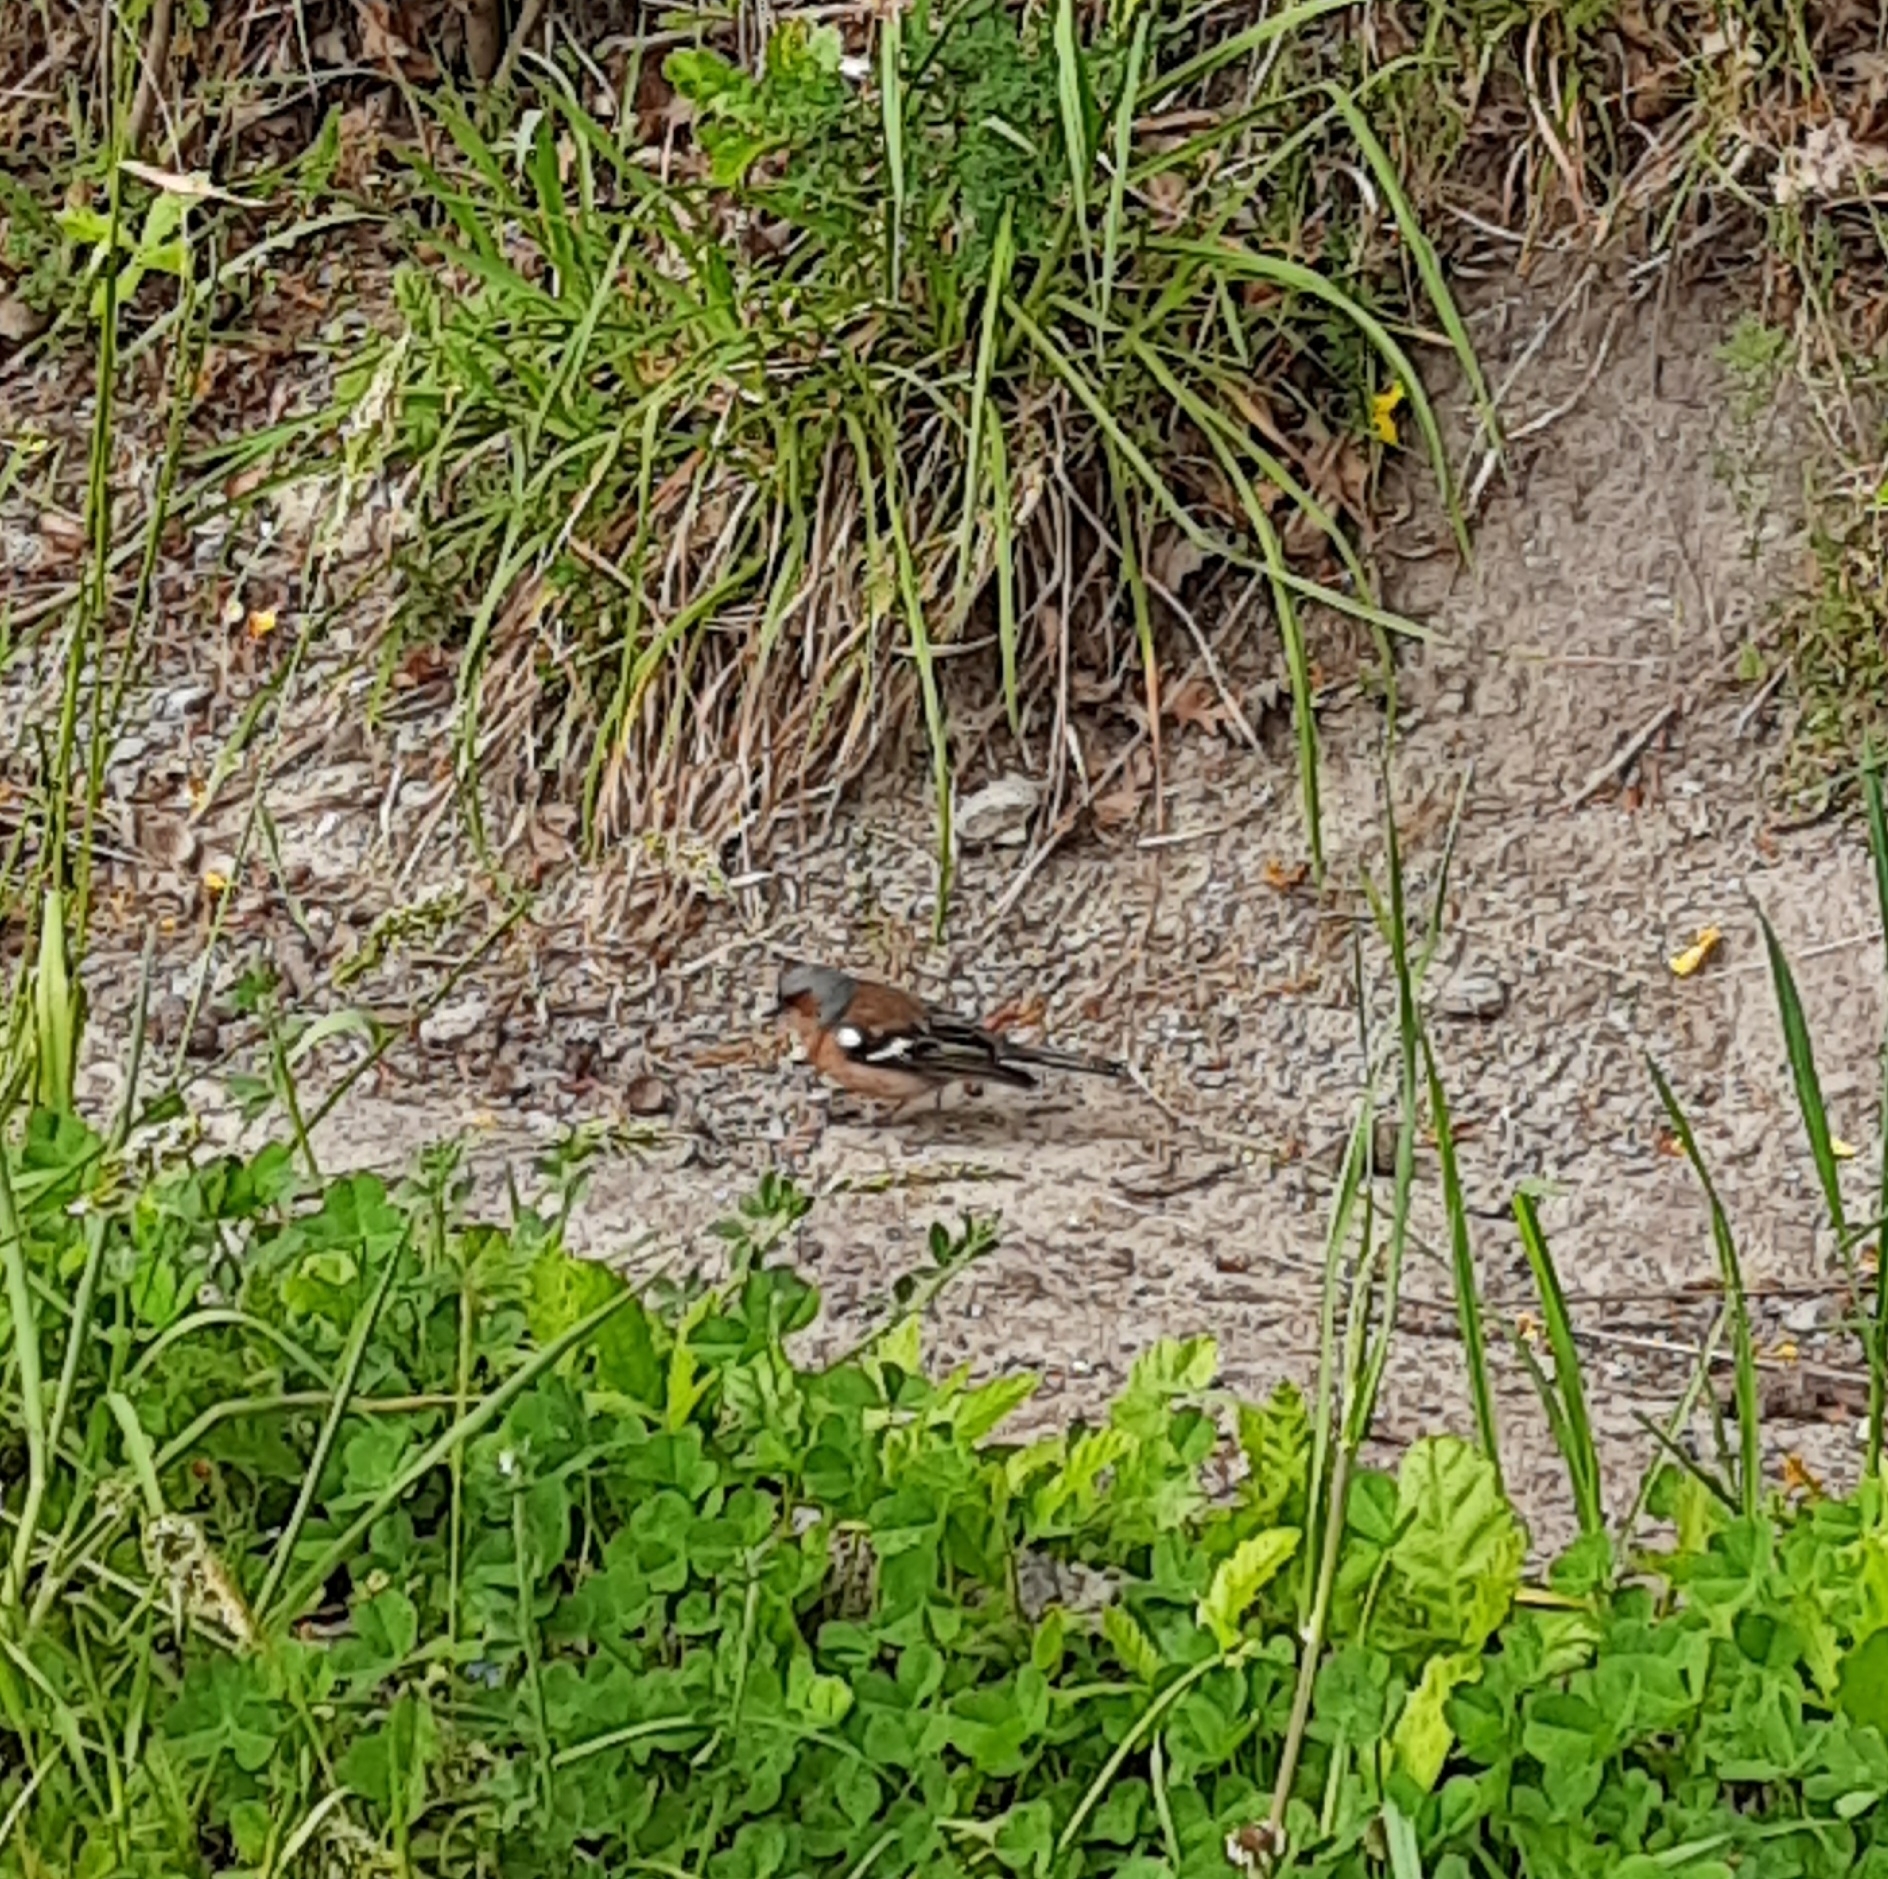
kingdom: Animalia
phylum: Chordata
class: Aves
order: Passeriformes
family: Fringillidae
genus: Fringilla
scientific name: Fringilla coelebs
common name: Common chaffinch
